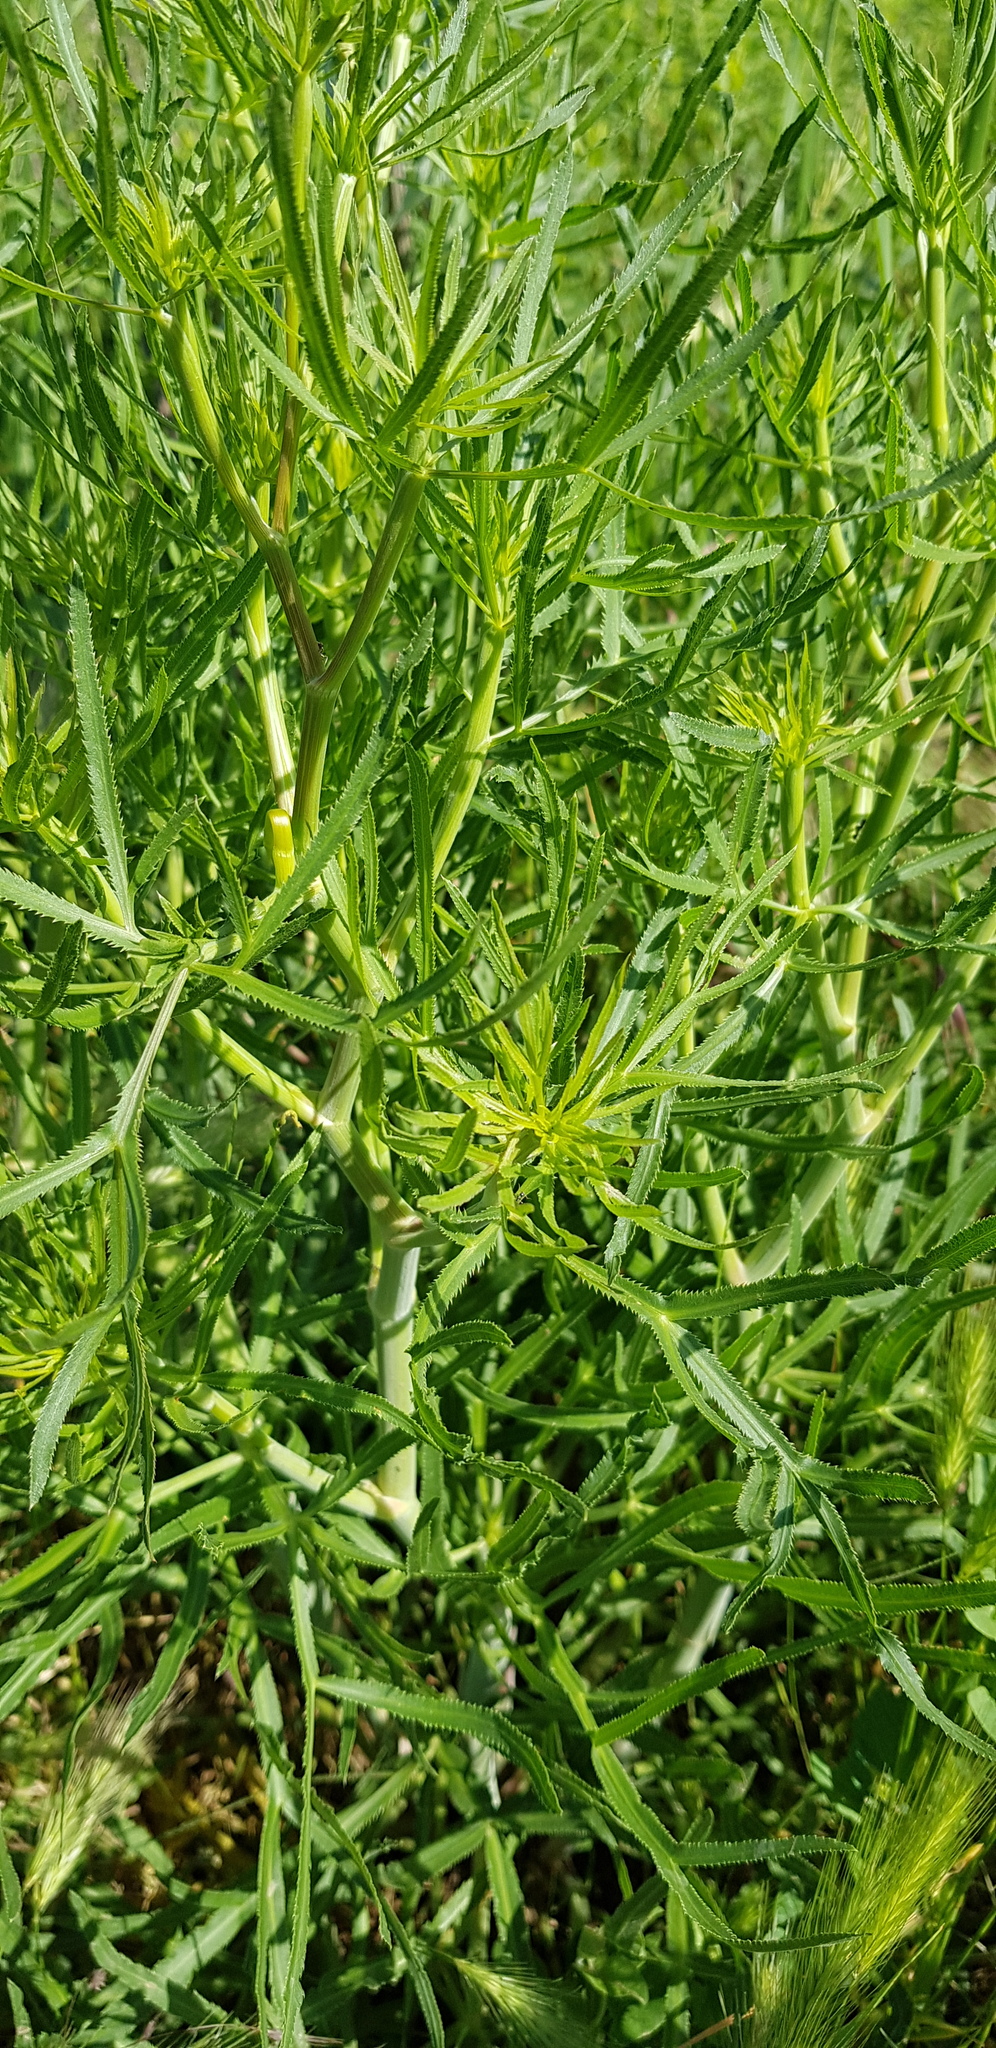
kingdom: Plantae
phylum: Tracheophyta
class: Magnoliopsida
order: Apiales
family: Apiaceae
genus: Falcaria
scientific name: Falcaria vulgaris
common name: Longleaf
